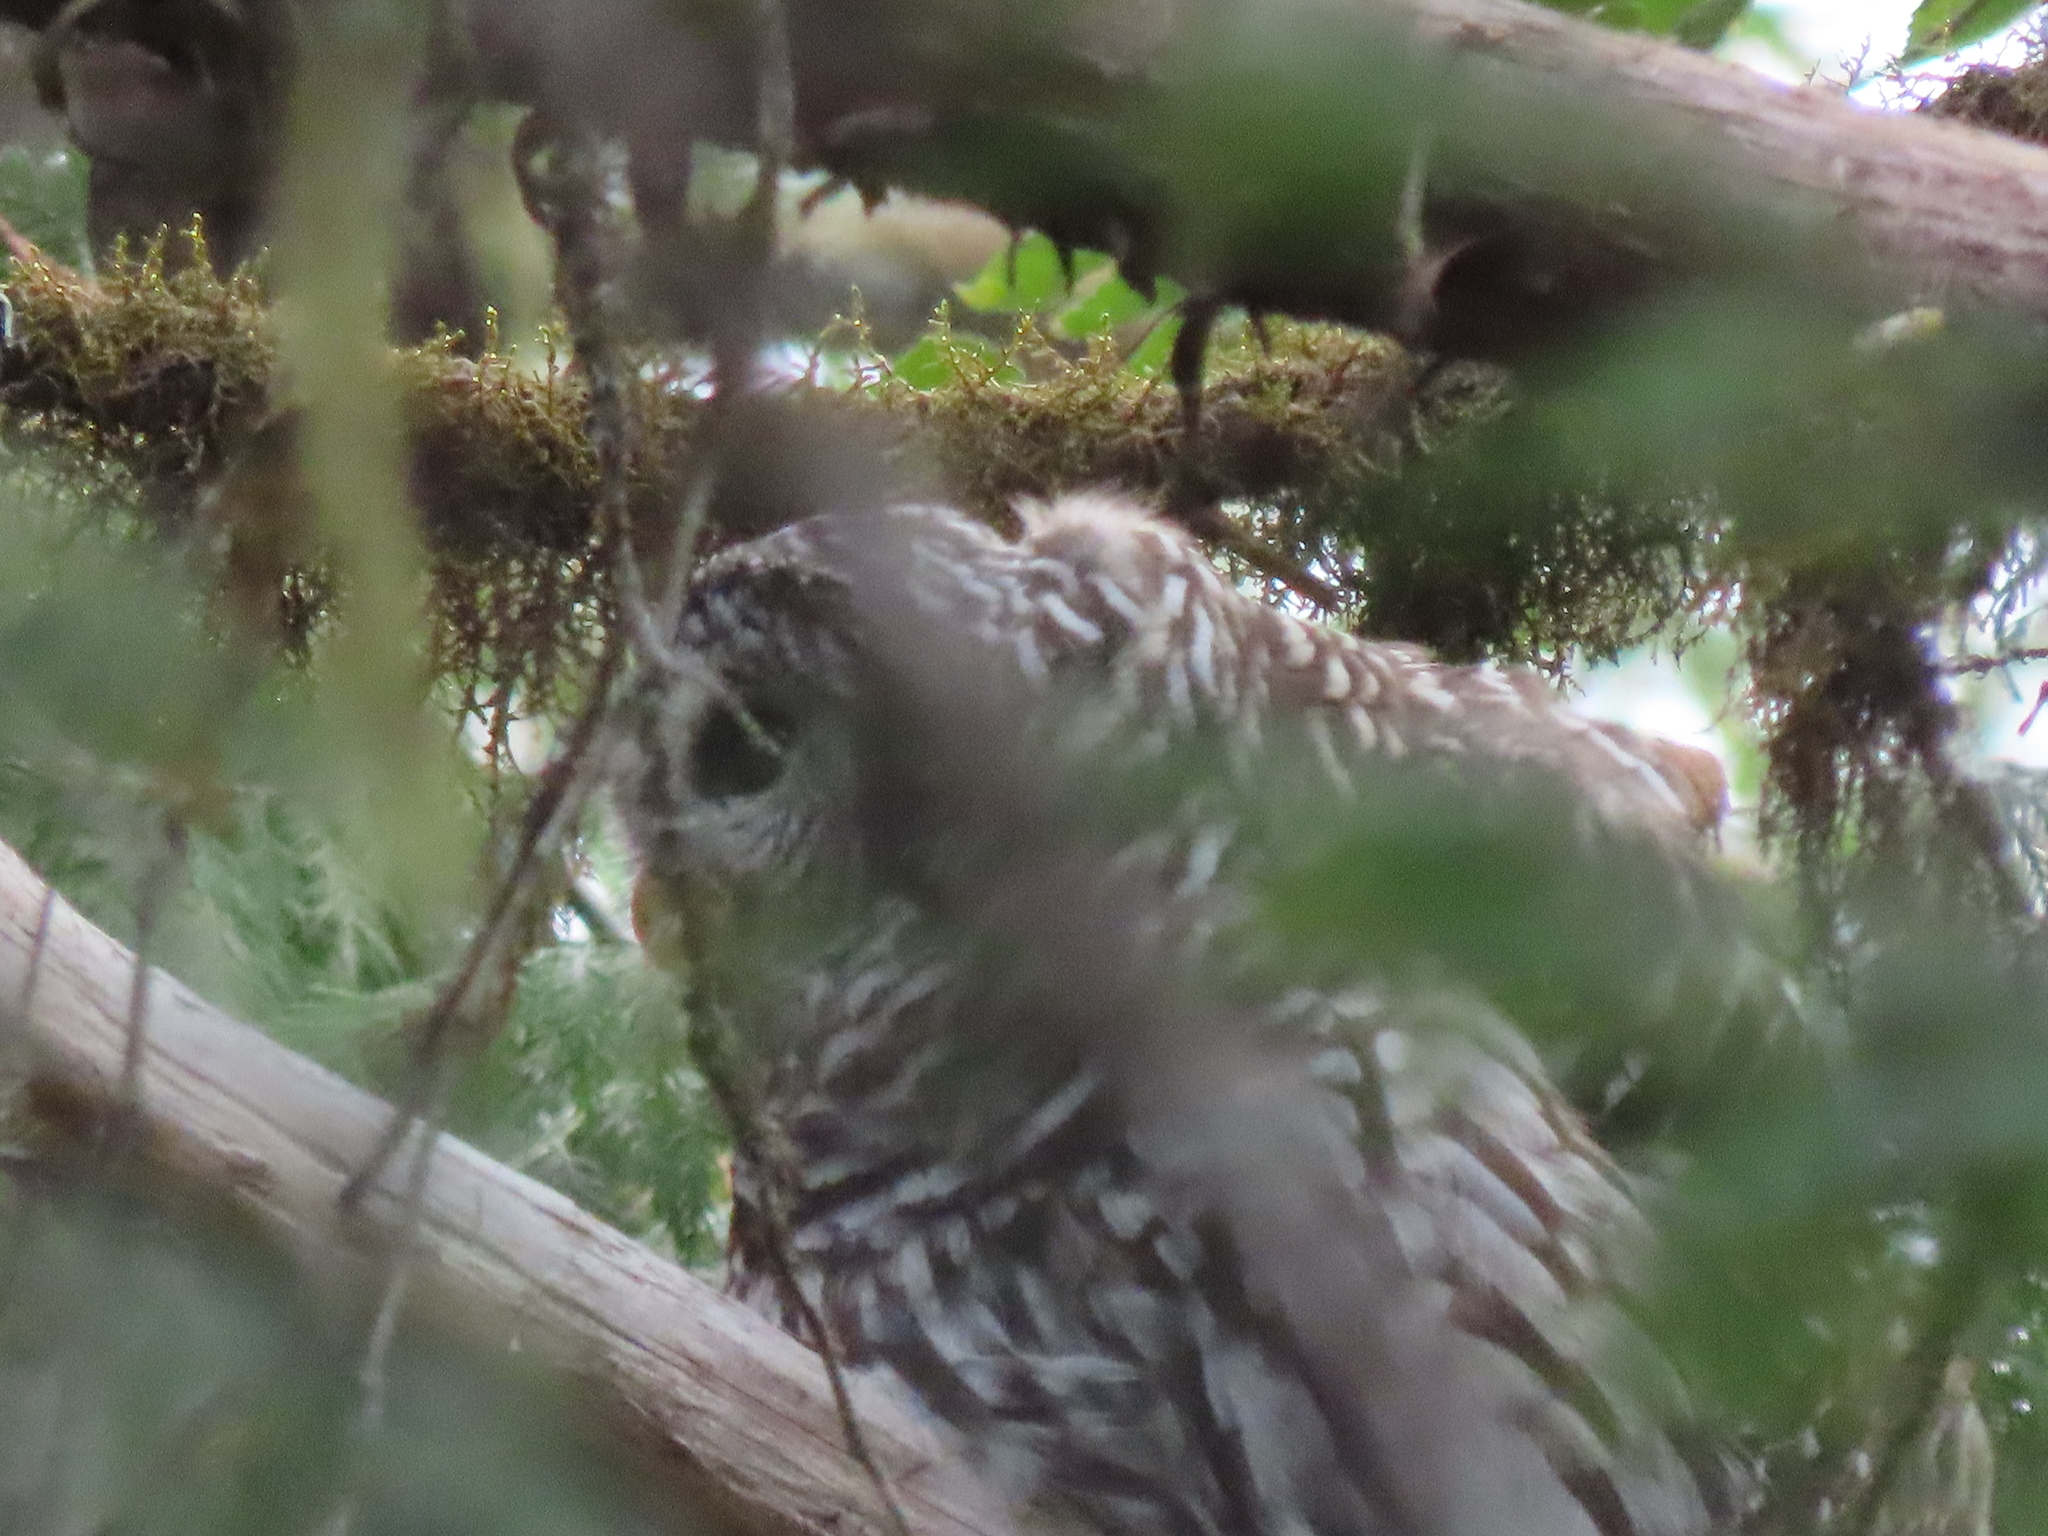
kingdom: Animalia
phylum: Chordata
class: Aves
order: Strigiformes
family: Strigidae
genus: Strix
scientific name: Strix varia
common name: Barred owl
